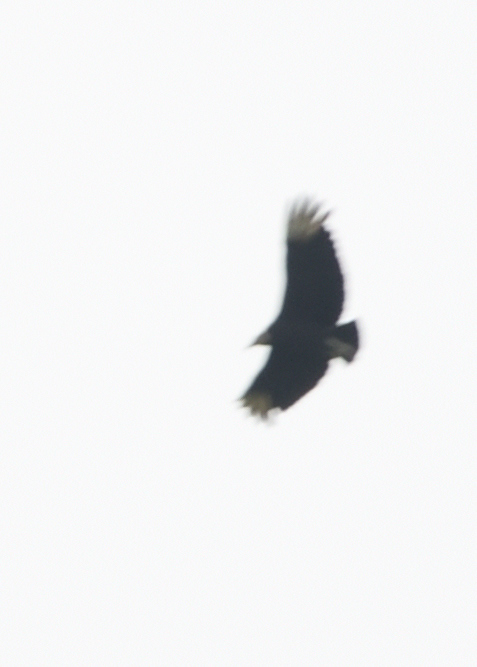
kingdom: Animalia
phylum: Chordata
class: Aves
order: Accipitriformes
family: Cathartidae
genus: Coragyps
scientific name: Coragyps atratus
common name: Black vulture
